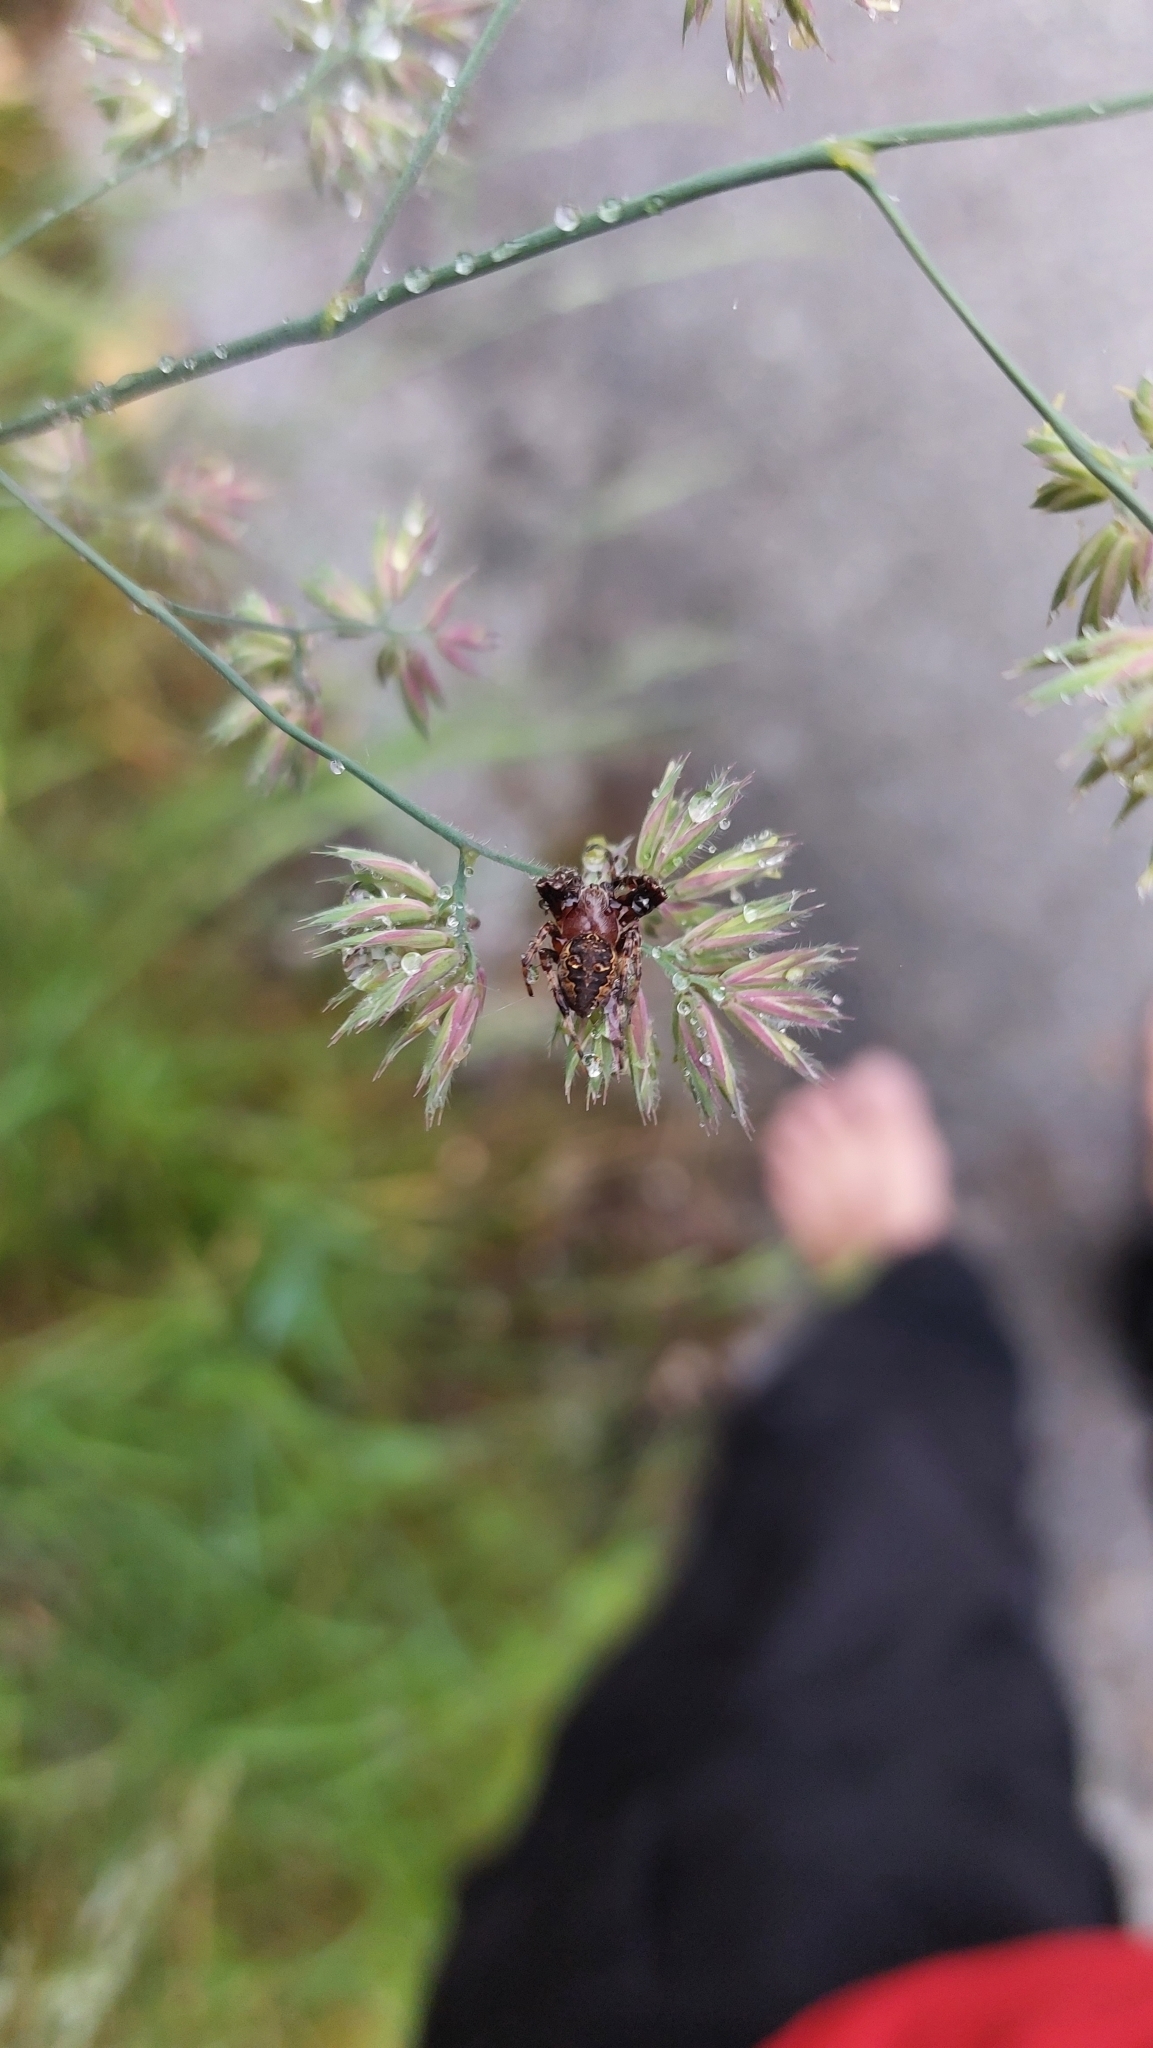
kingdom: Plantae
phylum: Tracheophyta
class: Liliopsida
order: Poales
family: Poaceae
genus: Dactylis
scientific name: Dactylis glomerata
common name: Orchardgrass
